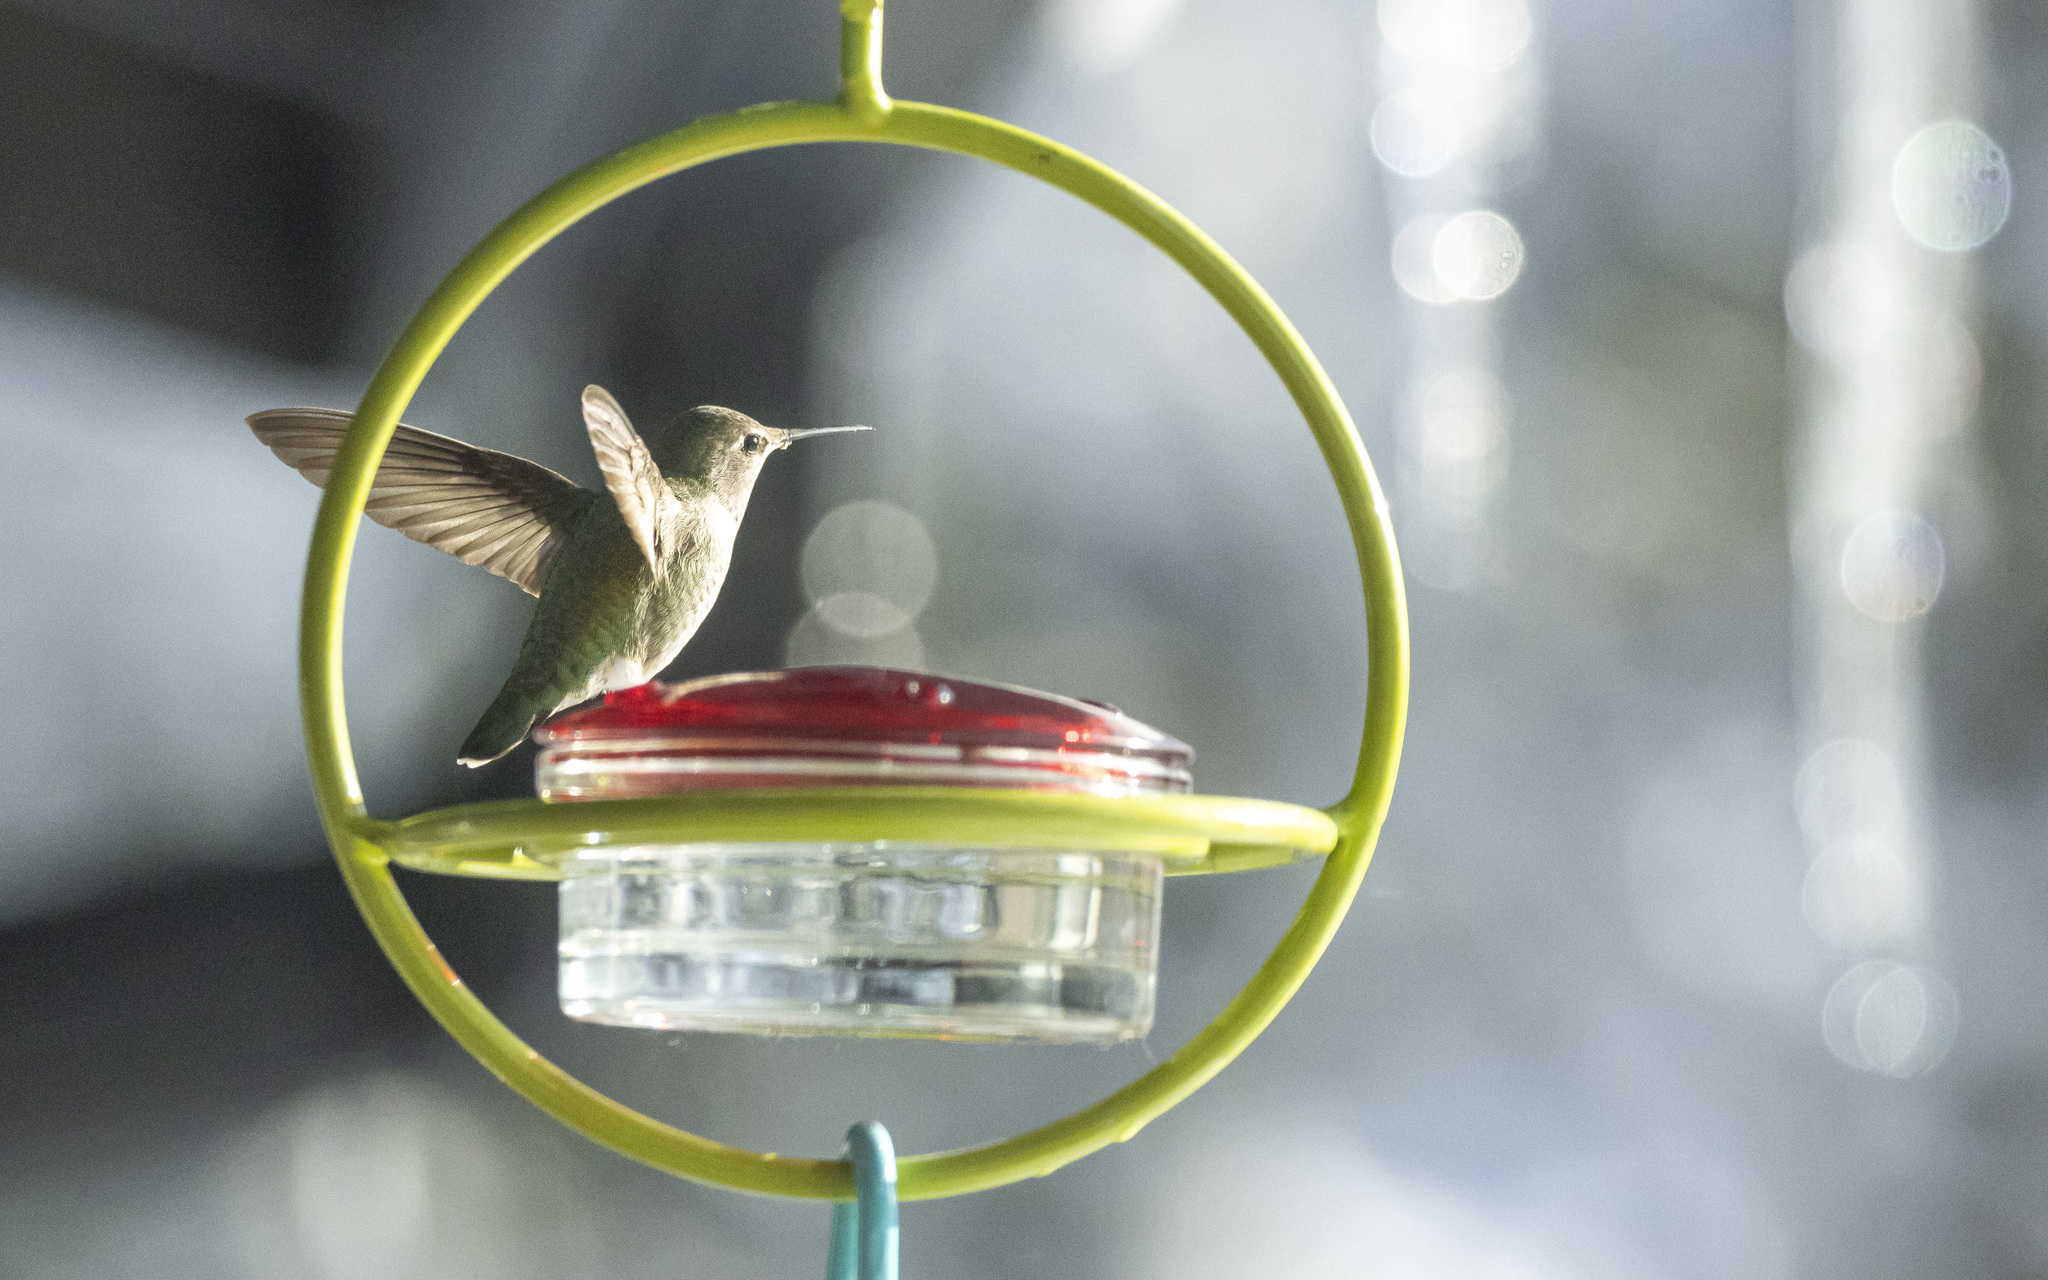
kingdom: Animalia
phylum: Chordata
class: Aves
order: Apodiformes
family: Trochilidae
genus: Calypte
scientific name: Calypte anna
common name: Anna's hummingbird
